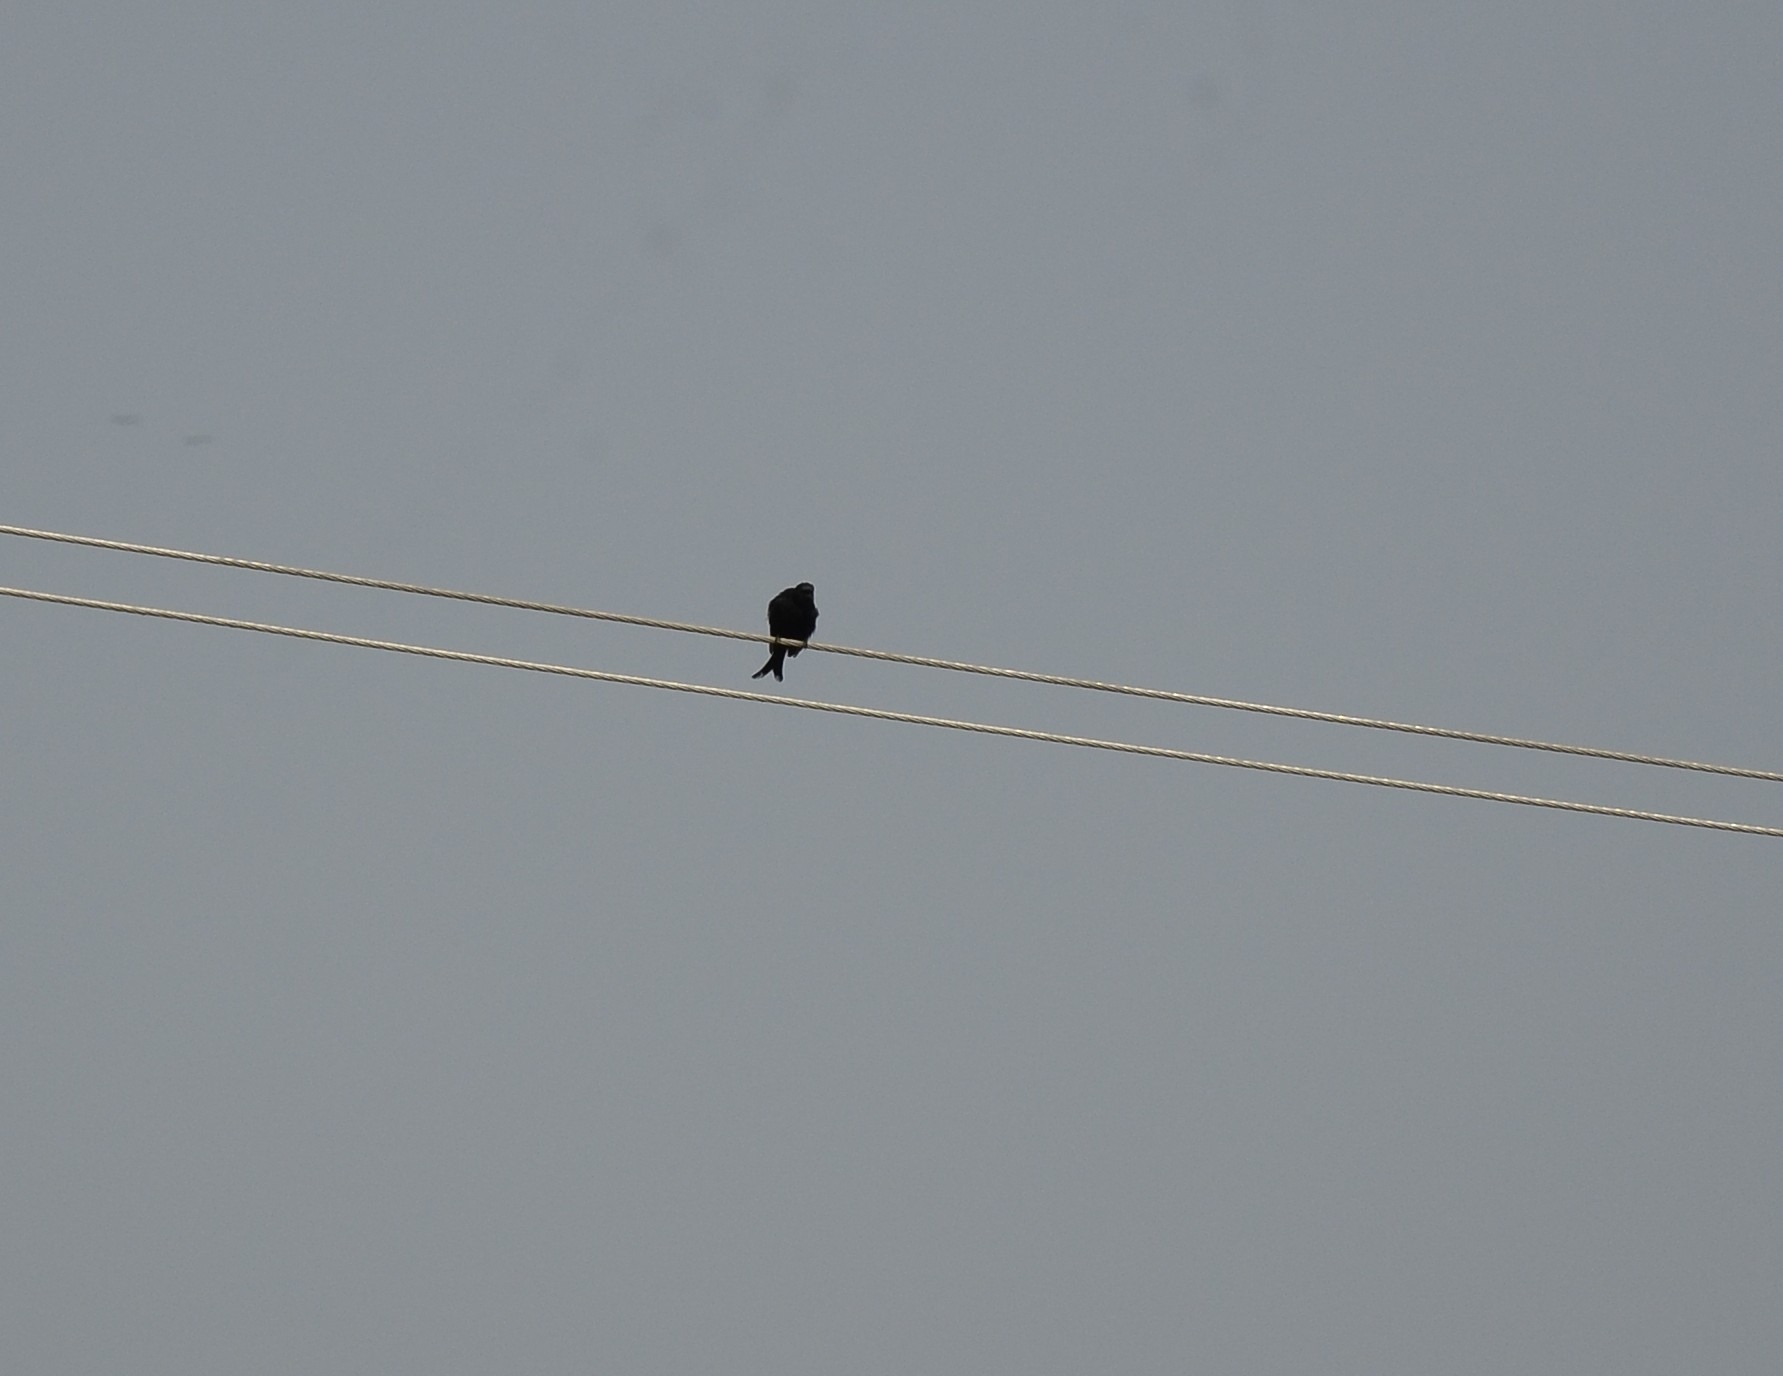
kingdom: Animalia
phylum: Chordata
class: Aves
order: Passeriformes
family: Dicruridae
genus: Dicrurus
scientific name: Dicrurus macrocercus
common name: Black drongo
